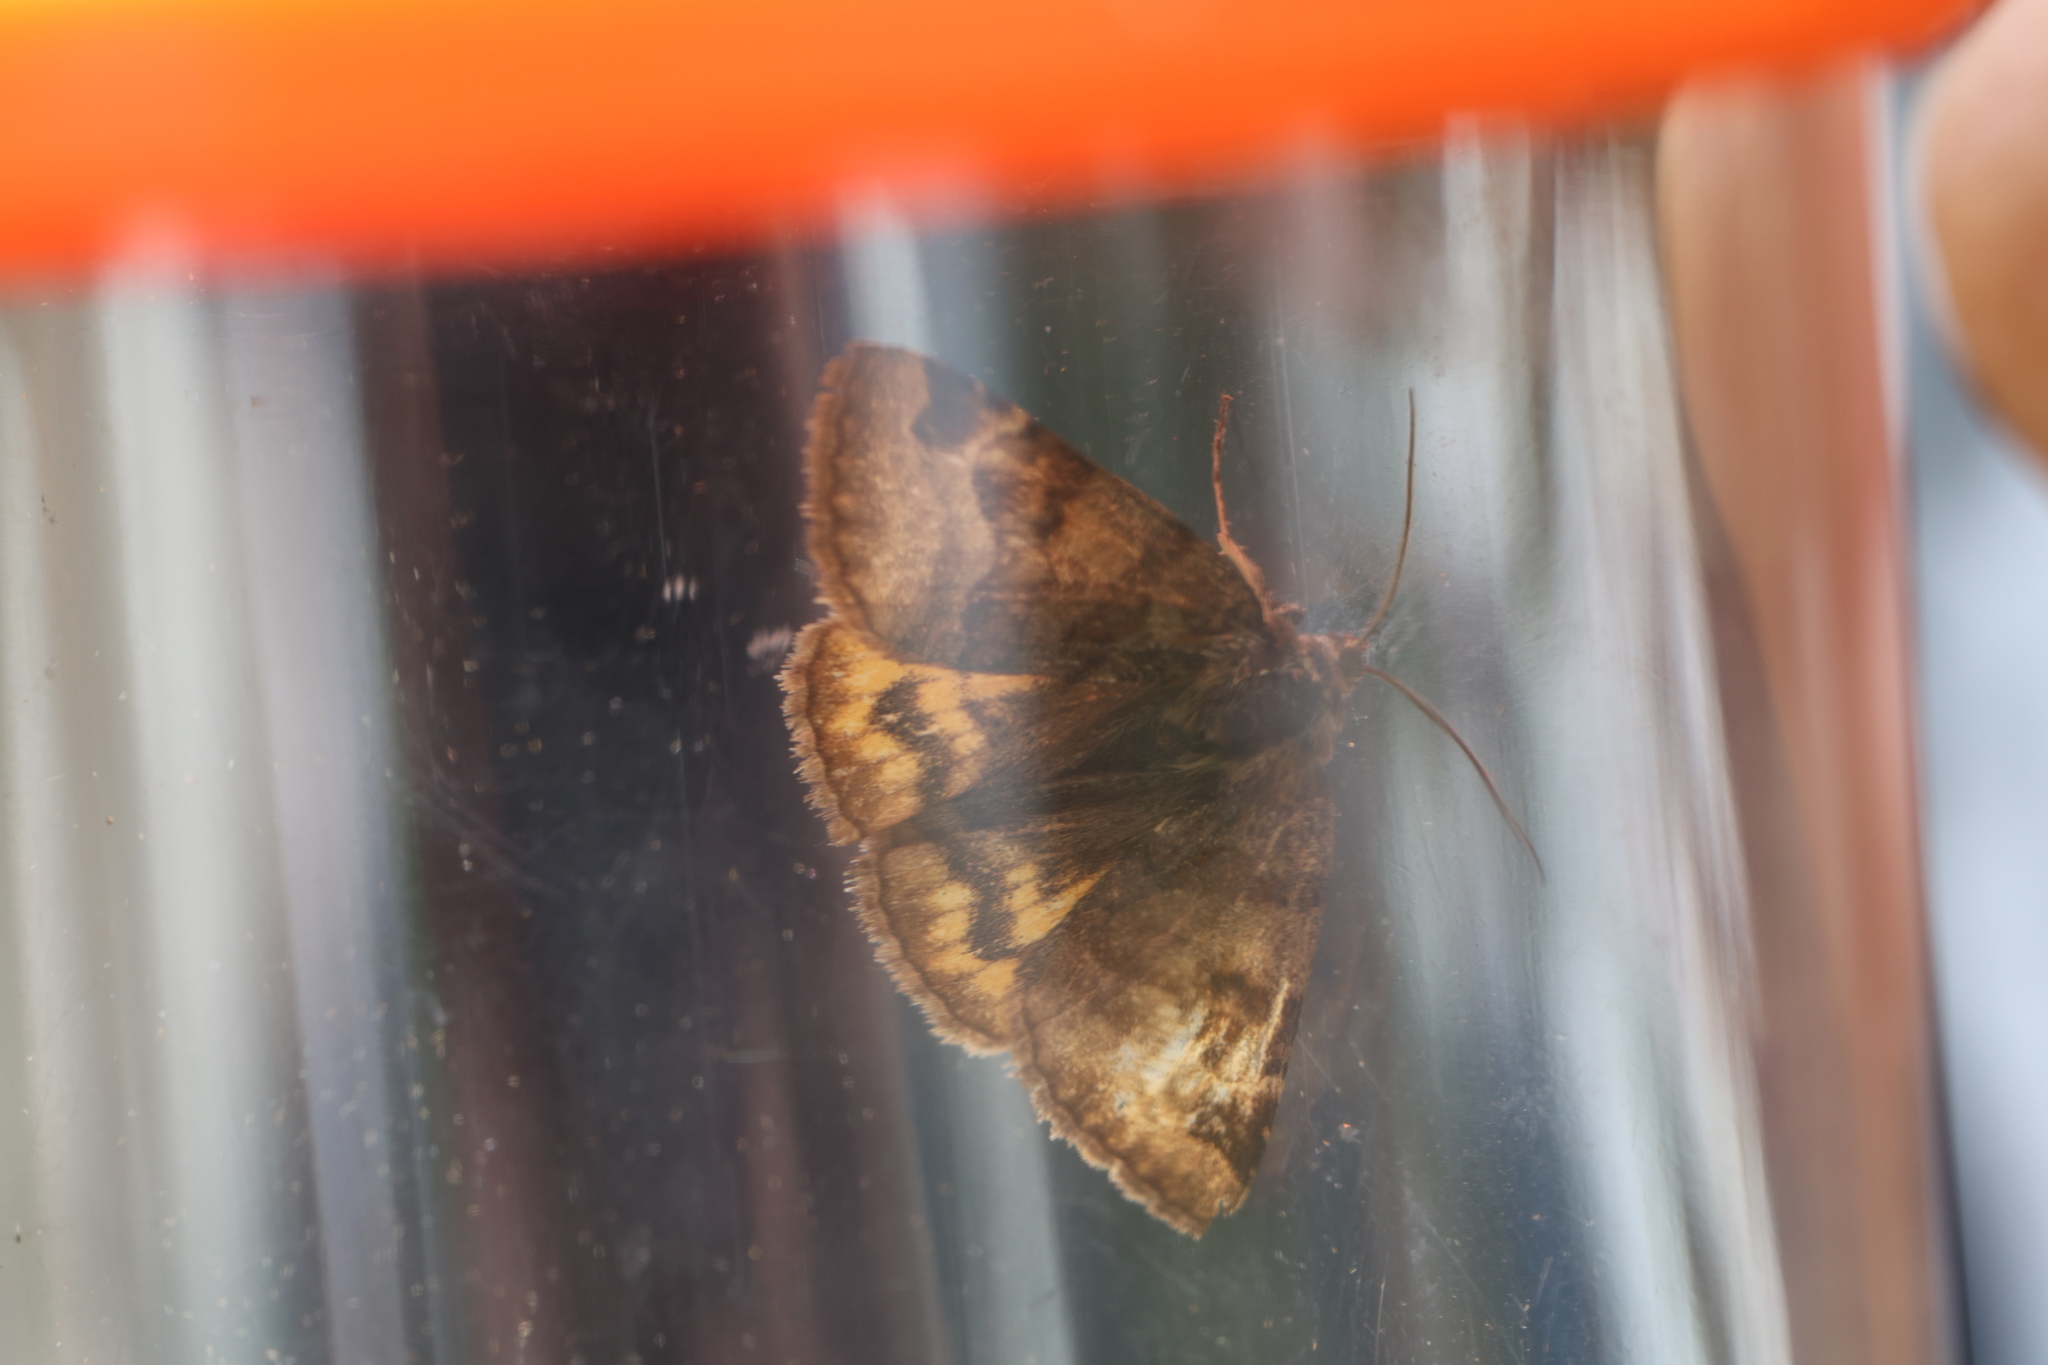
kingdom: Animalia
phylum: Arthropoda
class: Insecta
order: Lepidoptera
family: Erebidae
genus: Euclidia
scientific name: Euclidia glyphica
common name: Burnet companion
